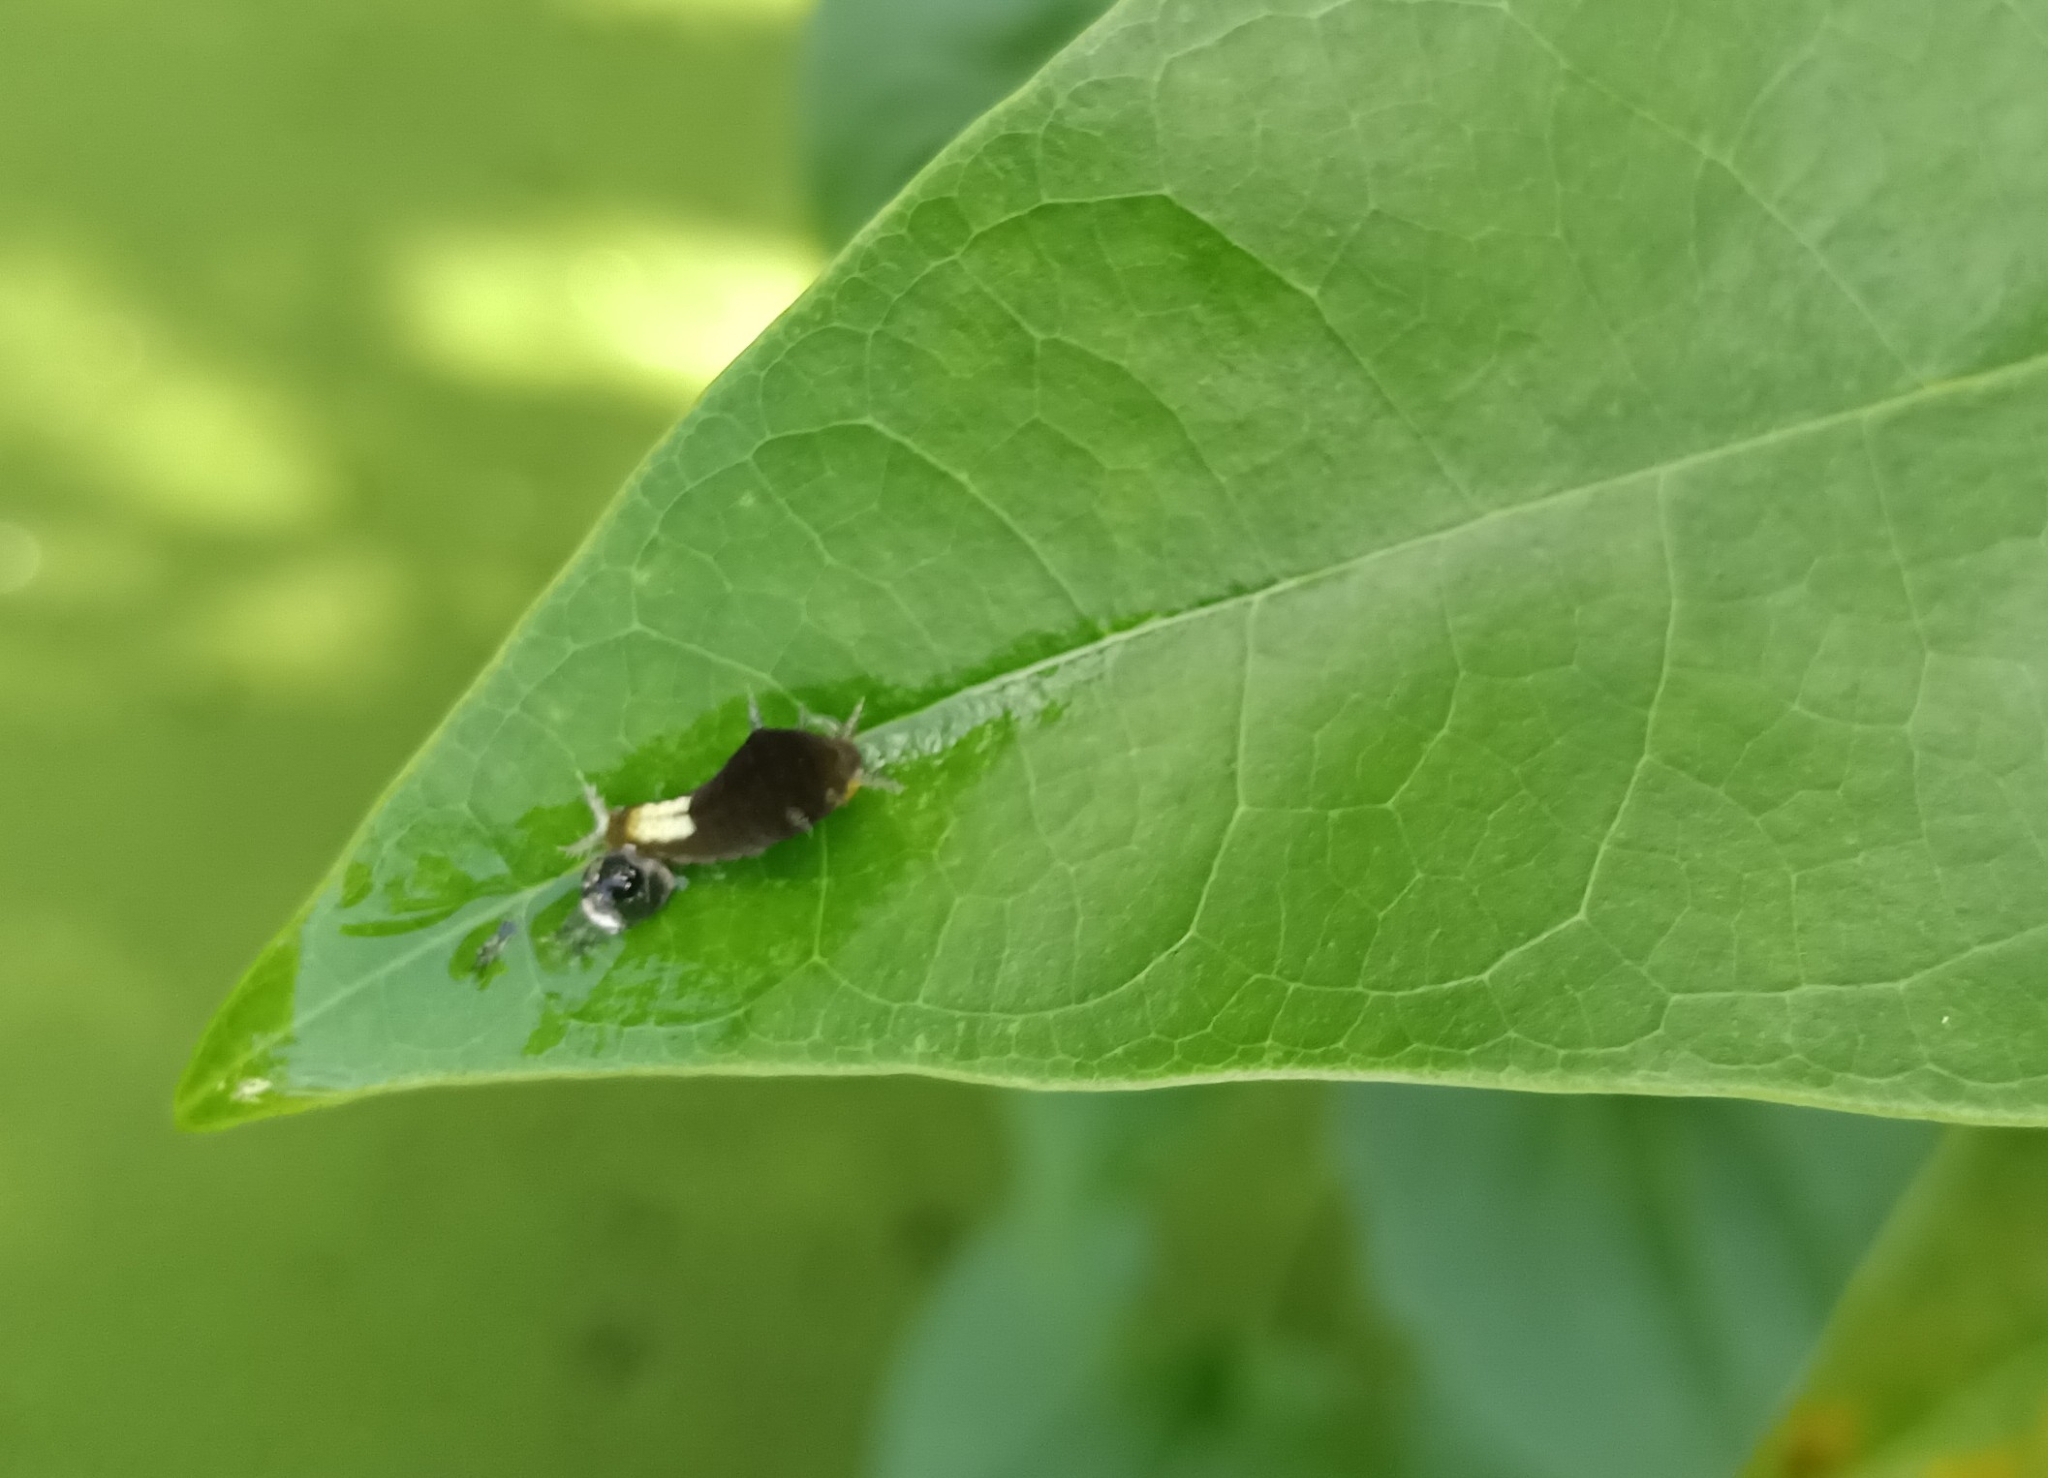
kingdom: Animalia
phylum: Arthropoda
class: Insecta
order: Lepidoptera
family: Papilionidae
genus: Graphium
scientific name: Graphium agamemnon
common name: Tailed jay
